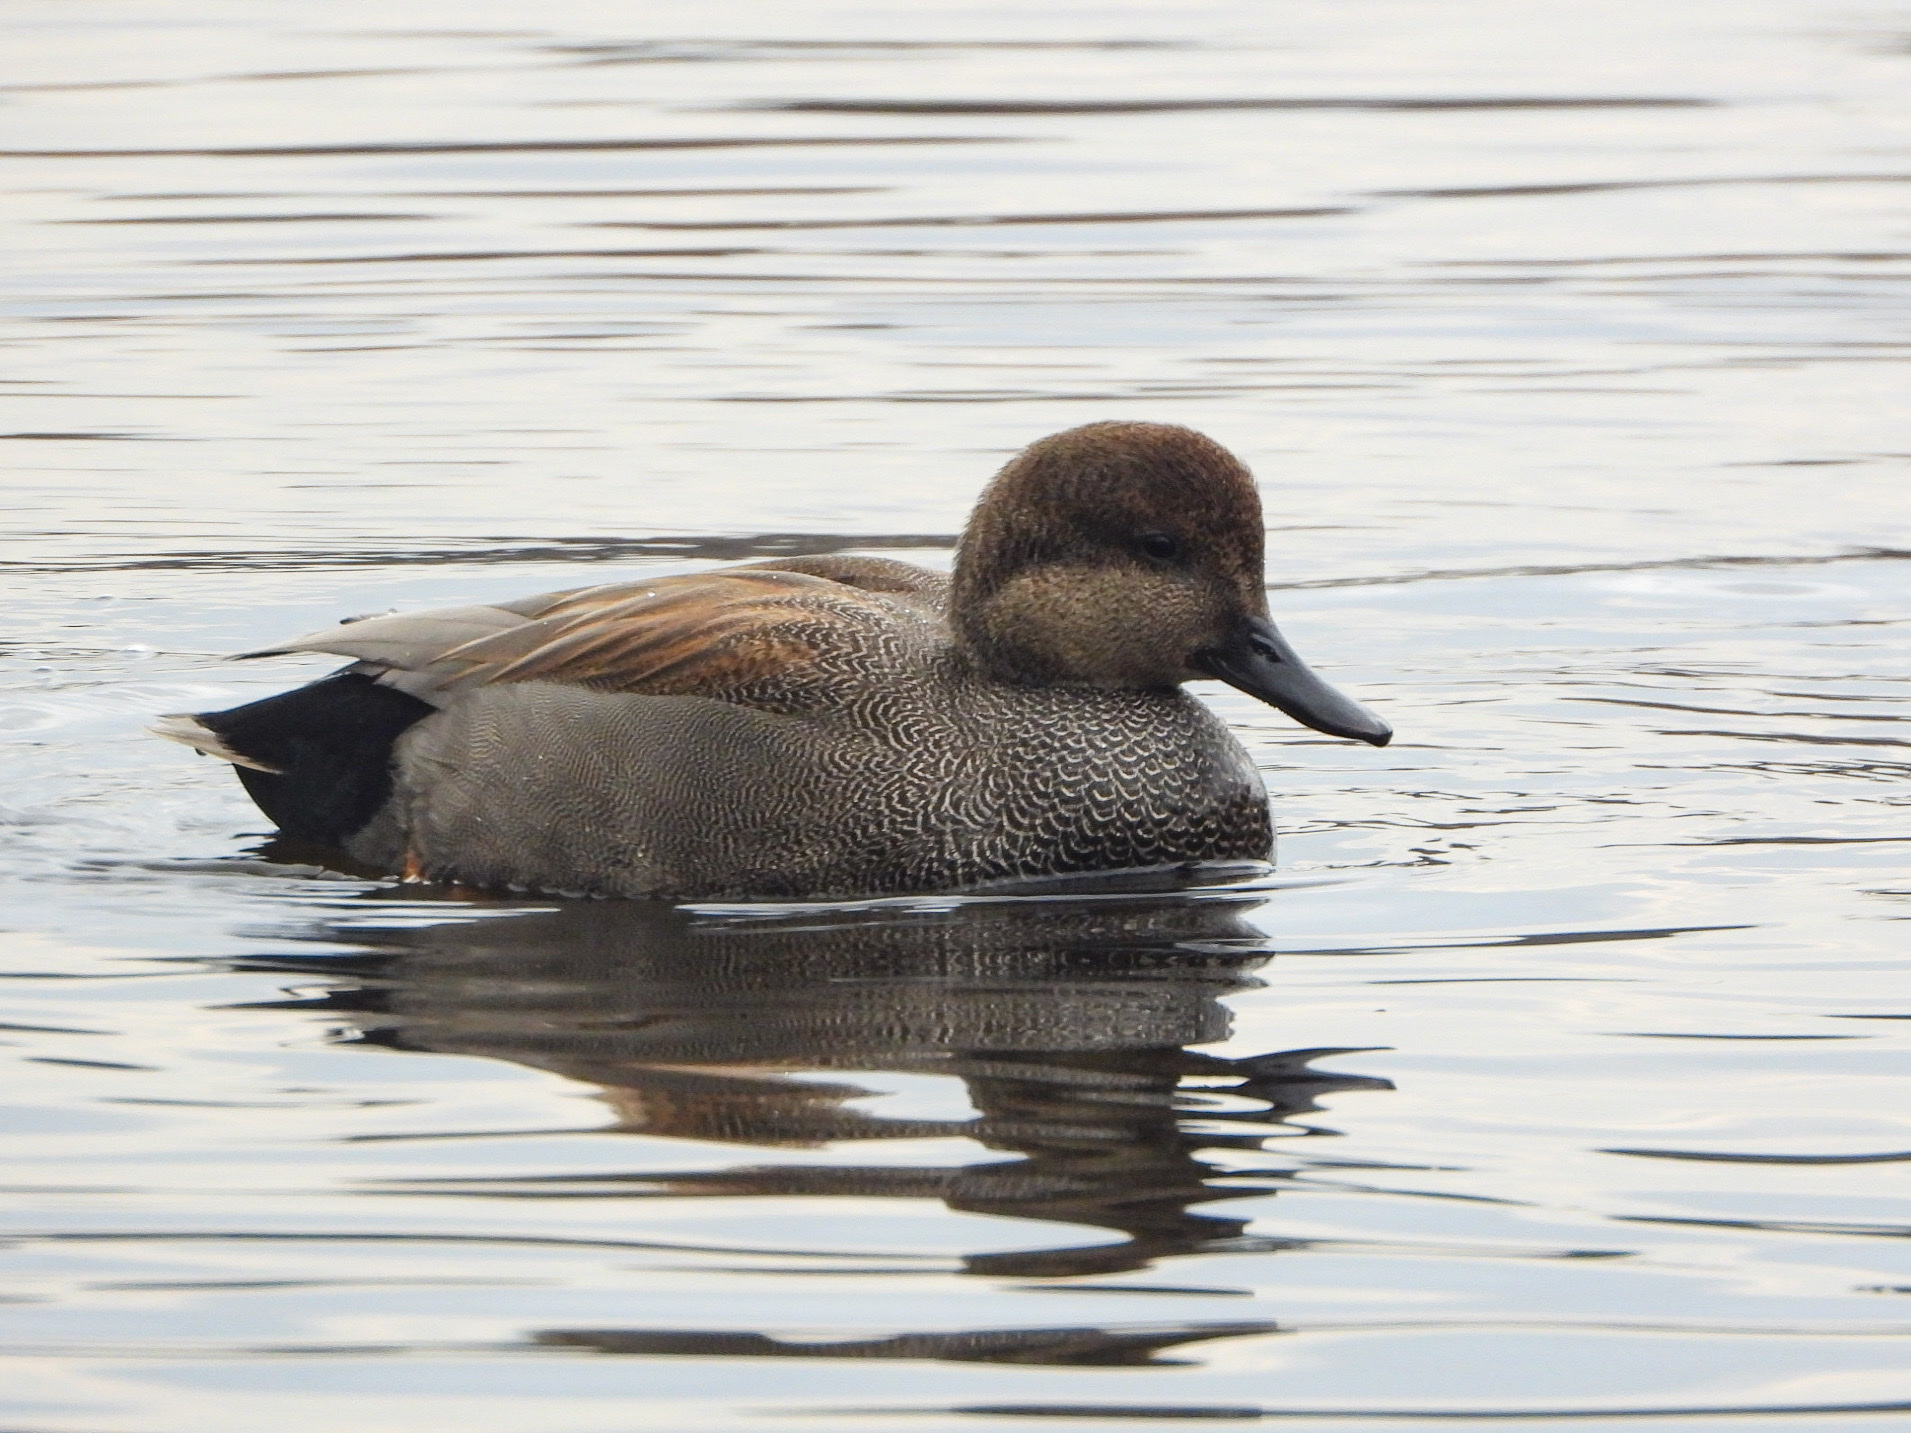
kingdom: Animalia
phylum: Chordata
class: Aves
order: Anseriformes
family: Anatidae
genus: Mareca
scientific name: Mareca strepera
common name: Gadwall
